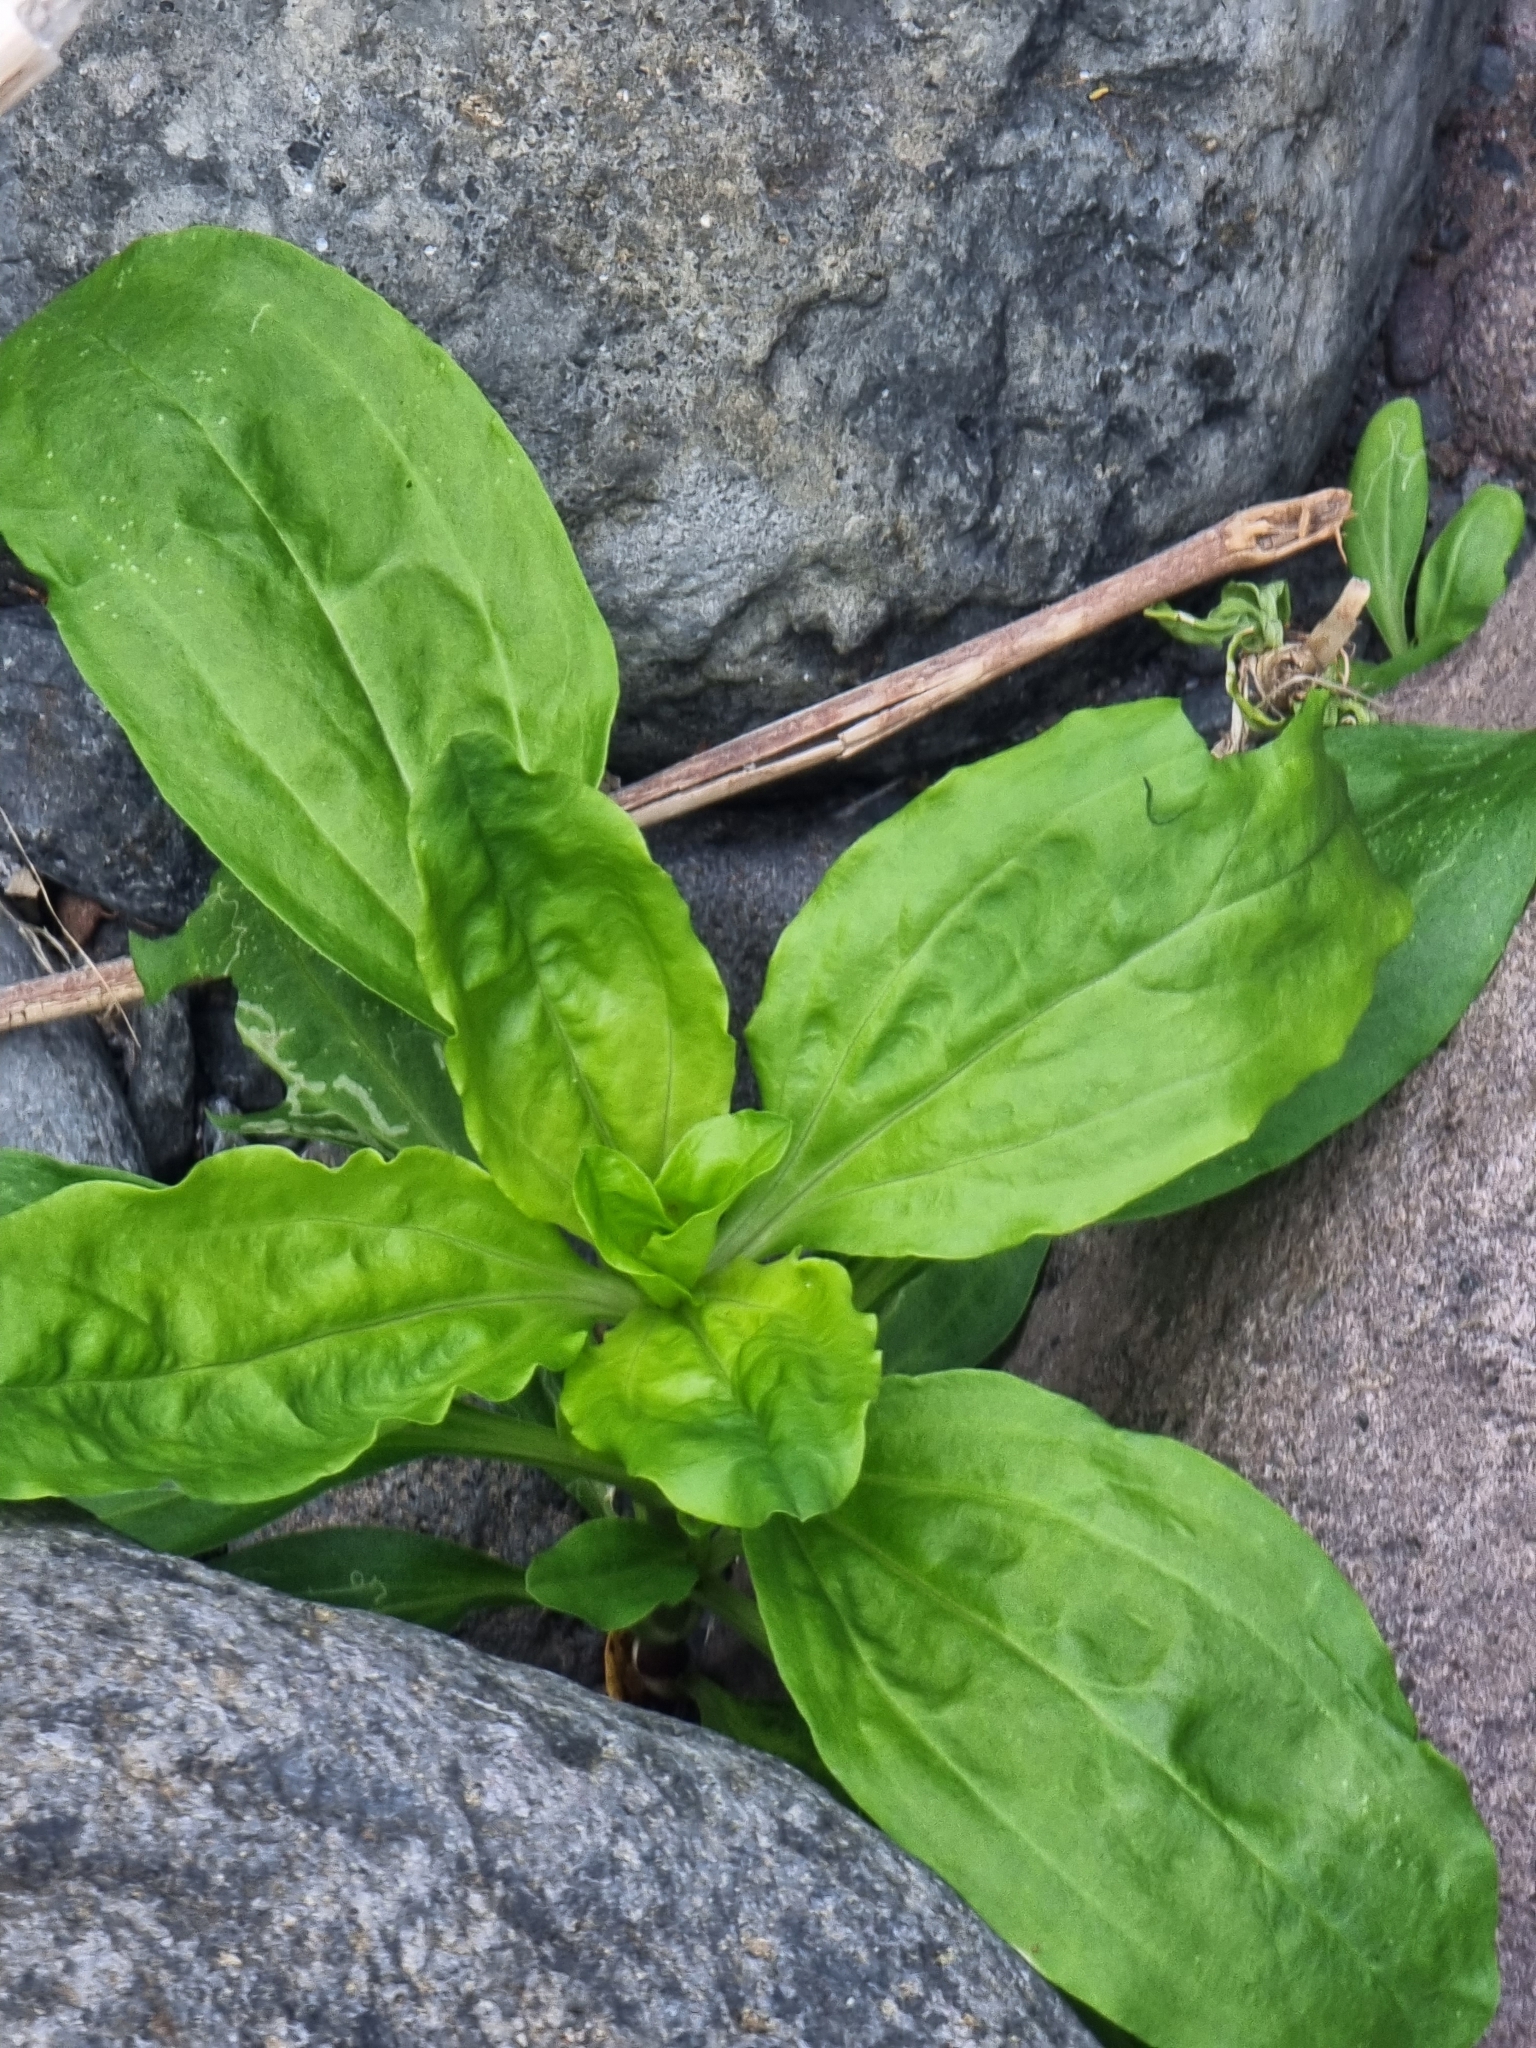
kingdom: Plantae
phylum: Tracheophyta
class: Magnoliopsida
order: Caryophyllales
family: Caryophyllaceae
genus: Saponaria
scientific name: Saponaria officinalis
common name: Soapwort
